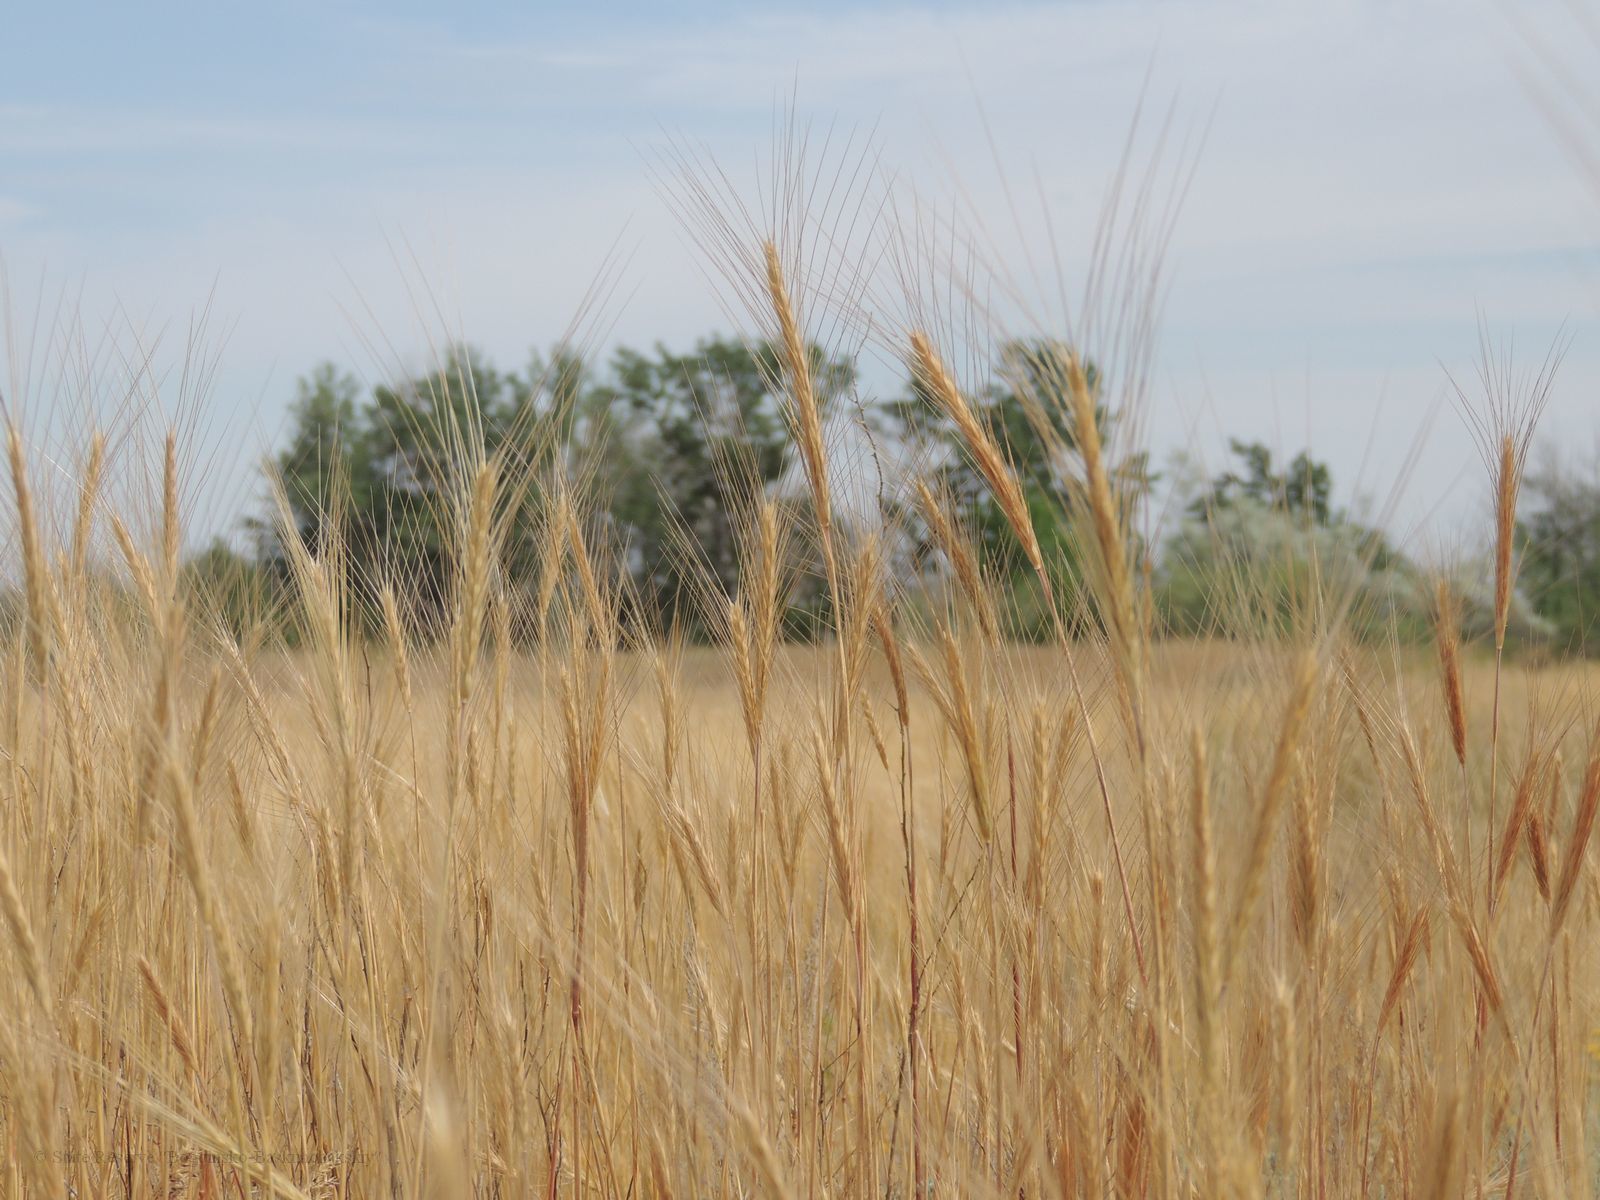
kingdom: Plantae
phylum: Tracheophyta
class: Liliopsida
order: Poales
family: Poaceae
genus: Secale
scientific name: Secale sylvestre
